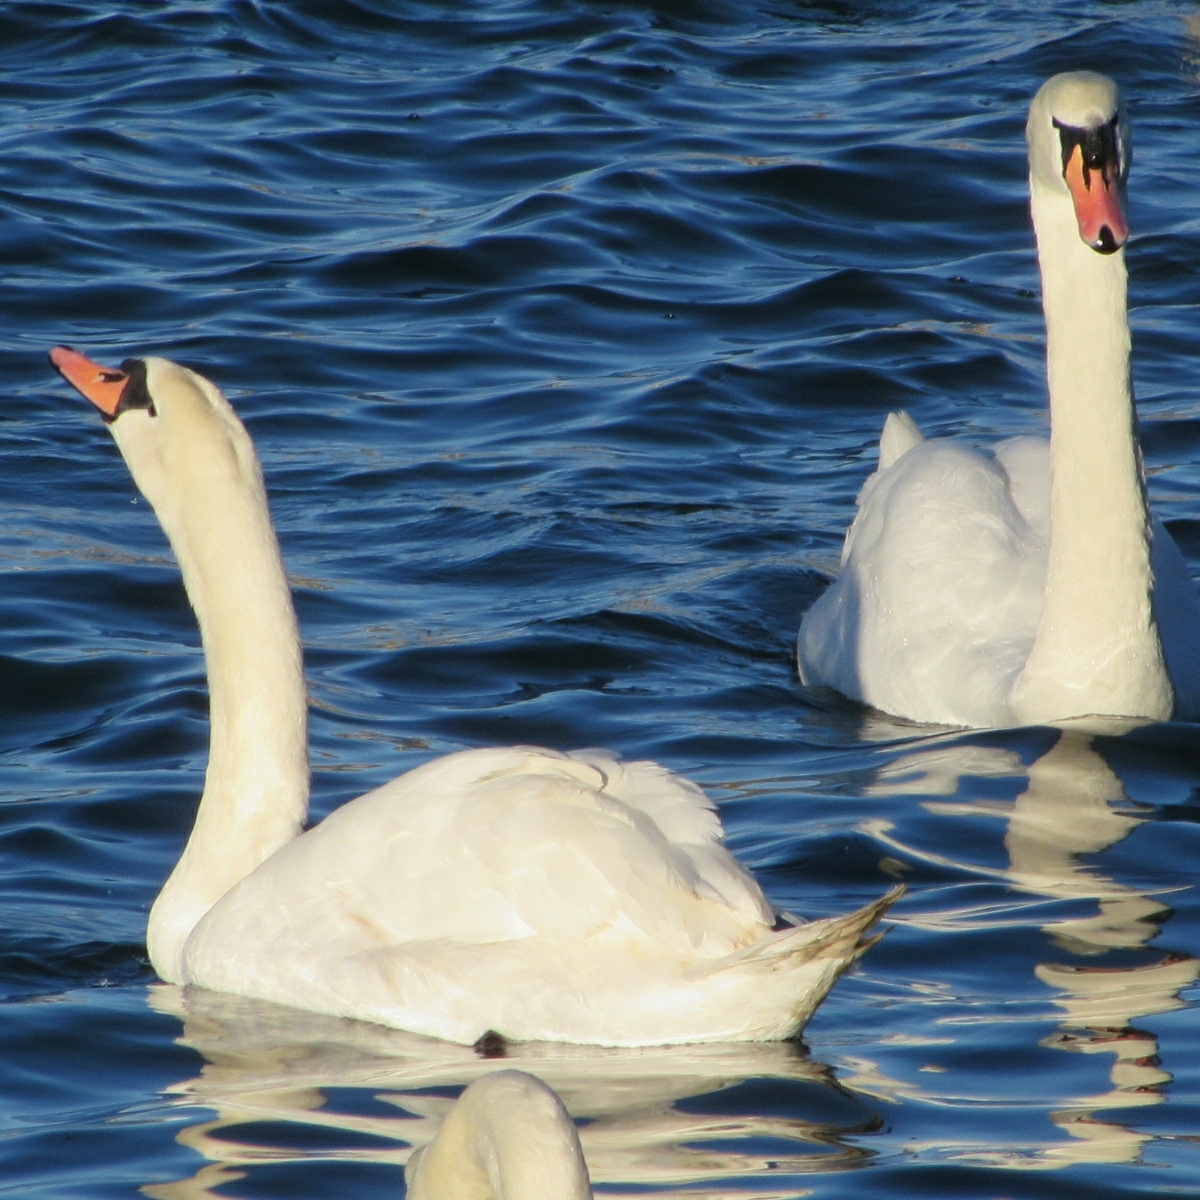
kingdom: Animalia
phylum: Chordata
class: Aves
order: Anseriformes
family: Anatidae
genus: Cygnus
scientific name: Cygnus olor
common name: Mute swan
